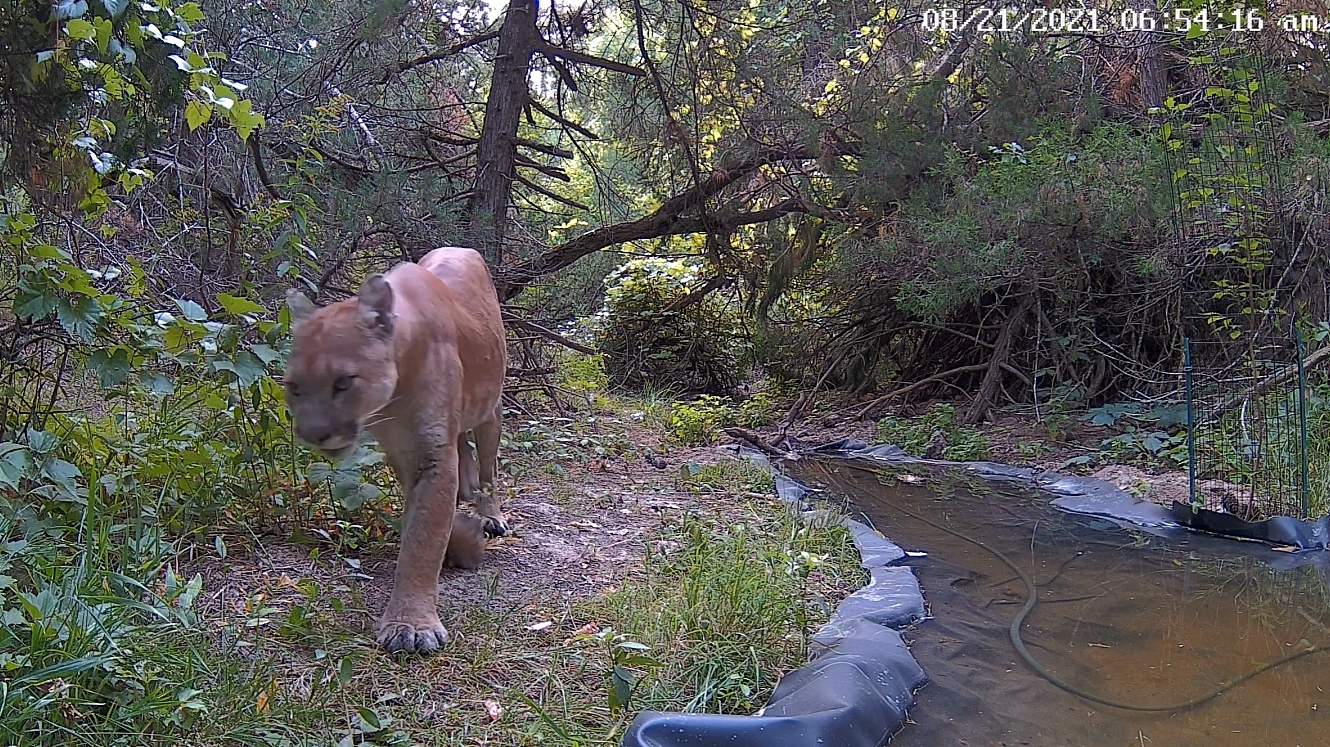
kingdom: Animalia
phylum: Chordata
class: Mammalia
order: Carnivora
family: Felidae
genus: Puma
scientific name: Puma concolor
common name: Puma
